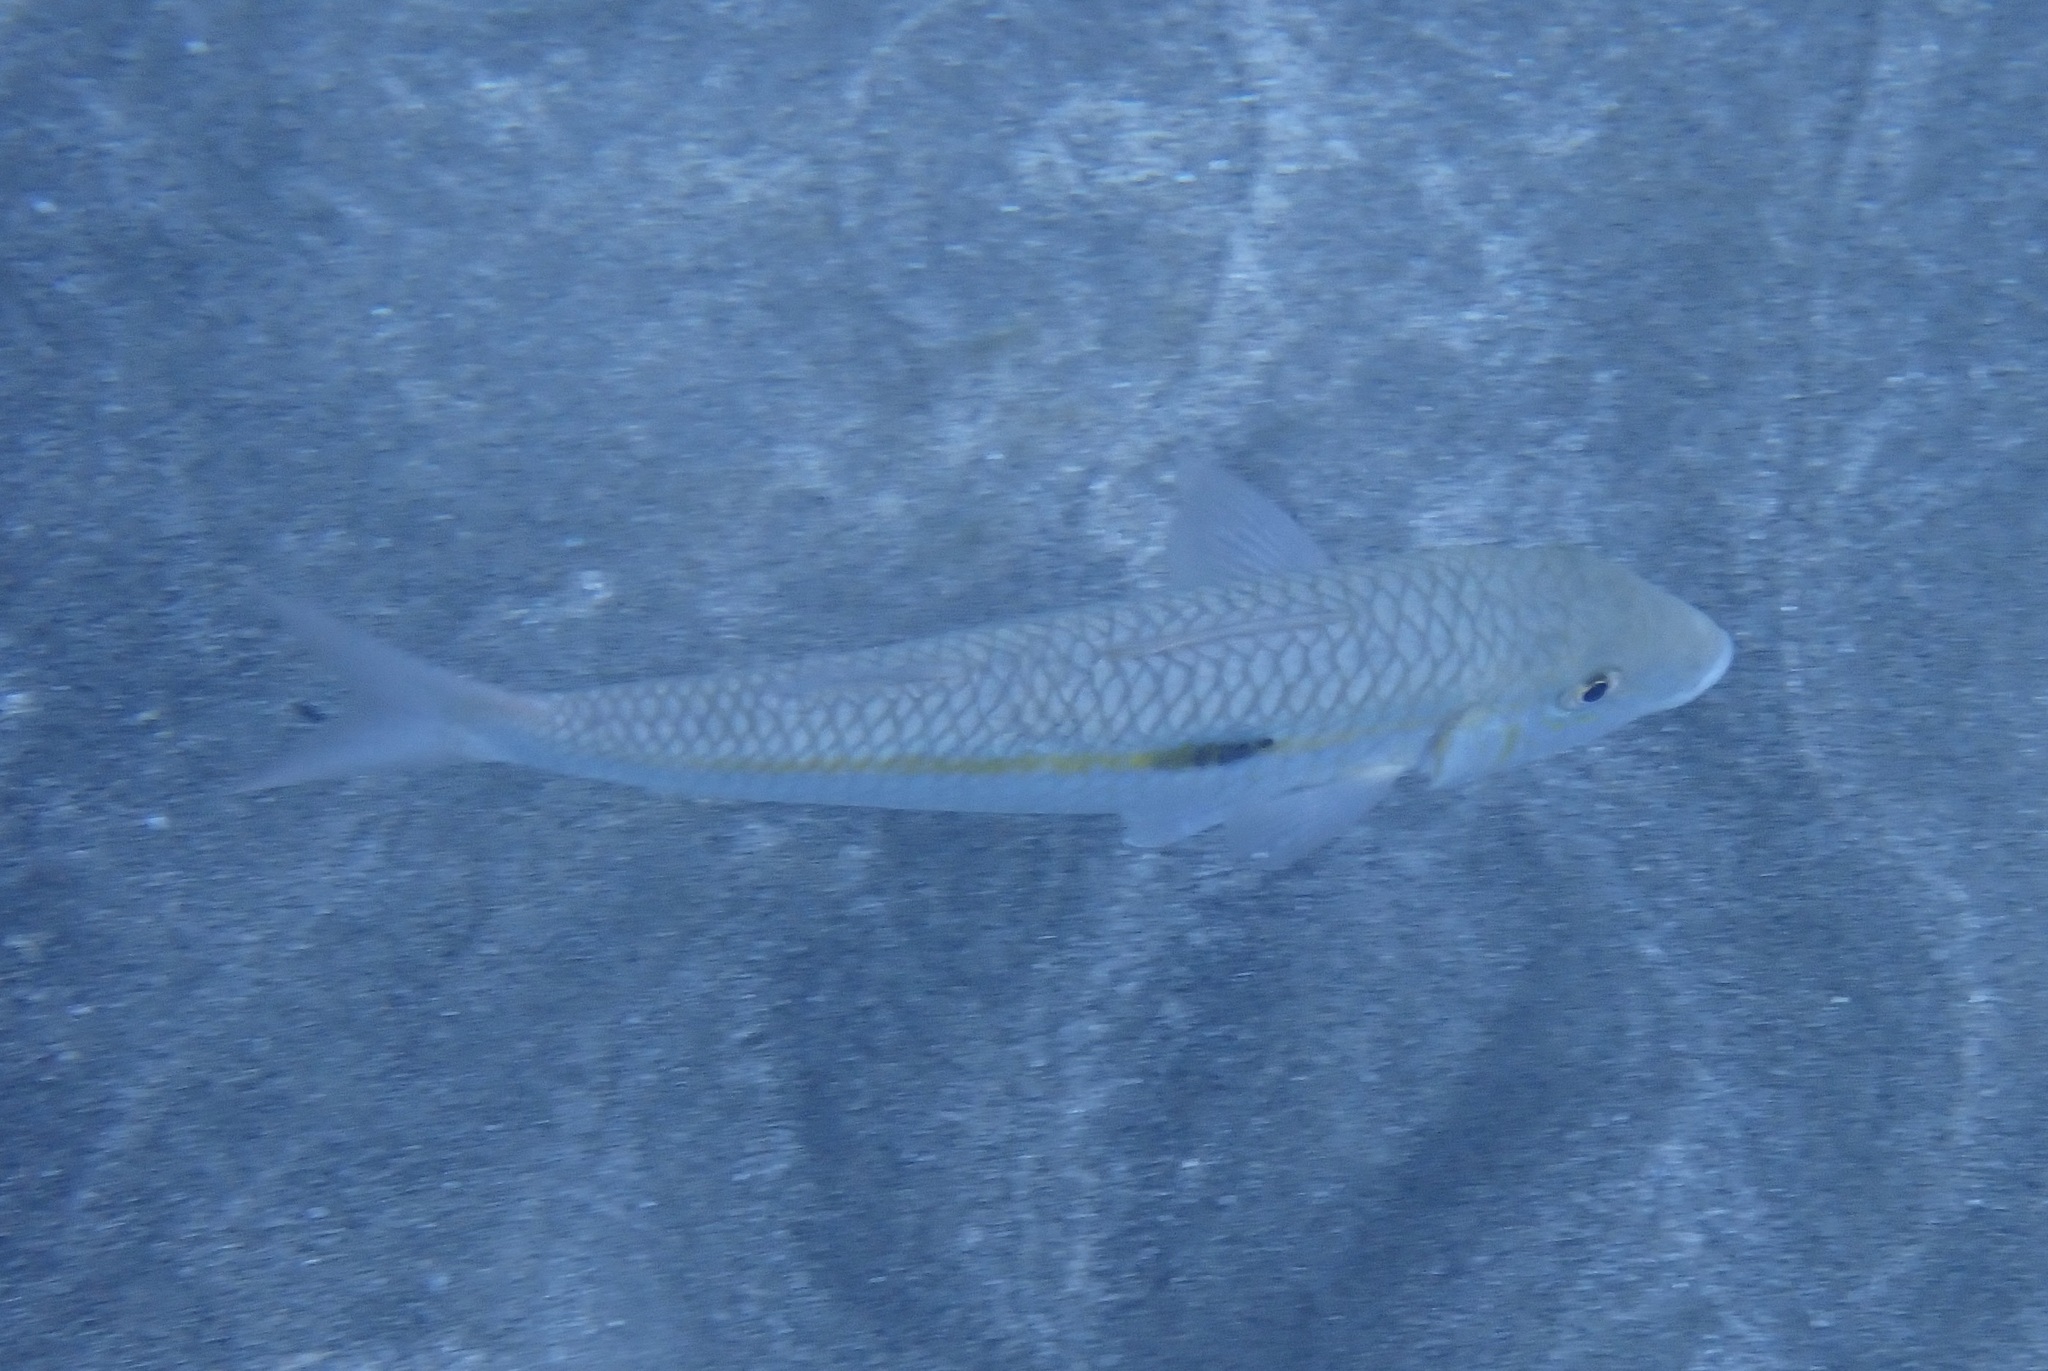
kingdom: Animalia
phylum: Chordata
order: Perciformes
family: Mullidae
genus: Mulloidichthys
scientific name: Mulloidichthys flavolineatus
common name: Yellowstripe goatfish
